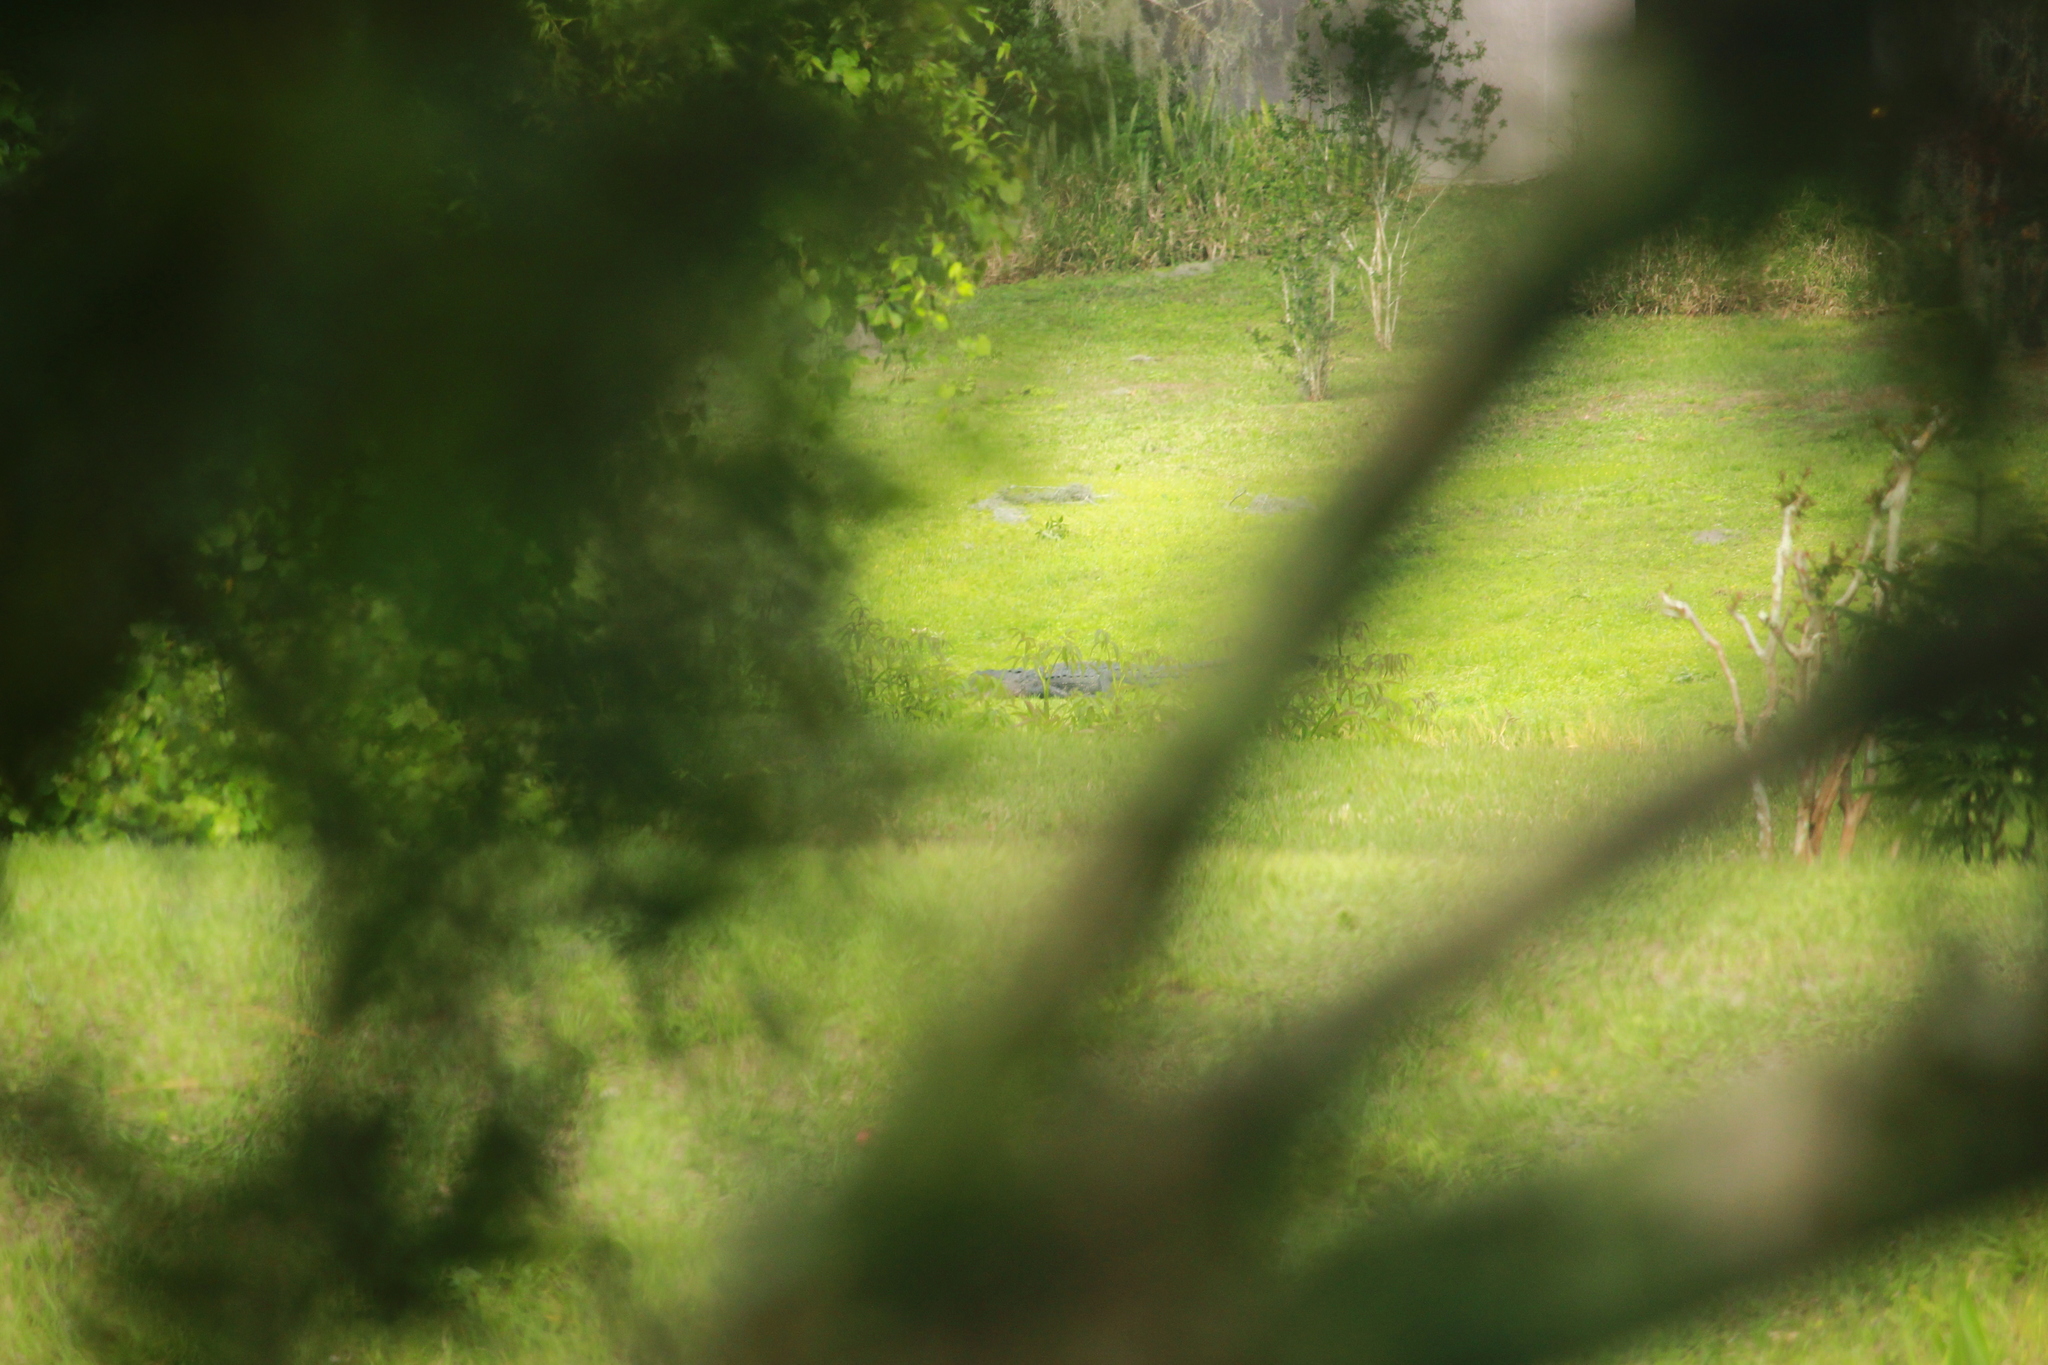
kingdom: Animalia
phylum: Chordata
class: Crocodylia
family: Alligatoridae
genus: Alligator
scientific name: Alligator mississippiensis
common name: American alligator
